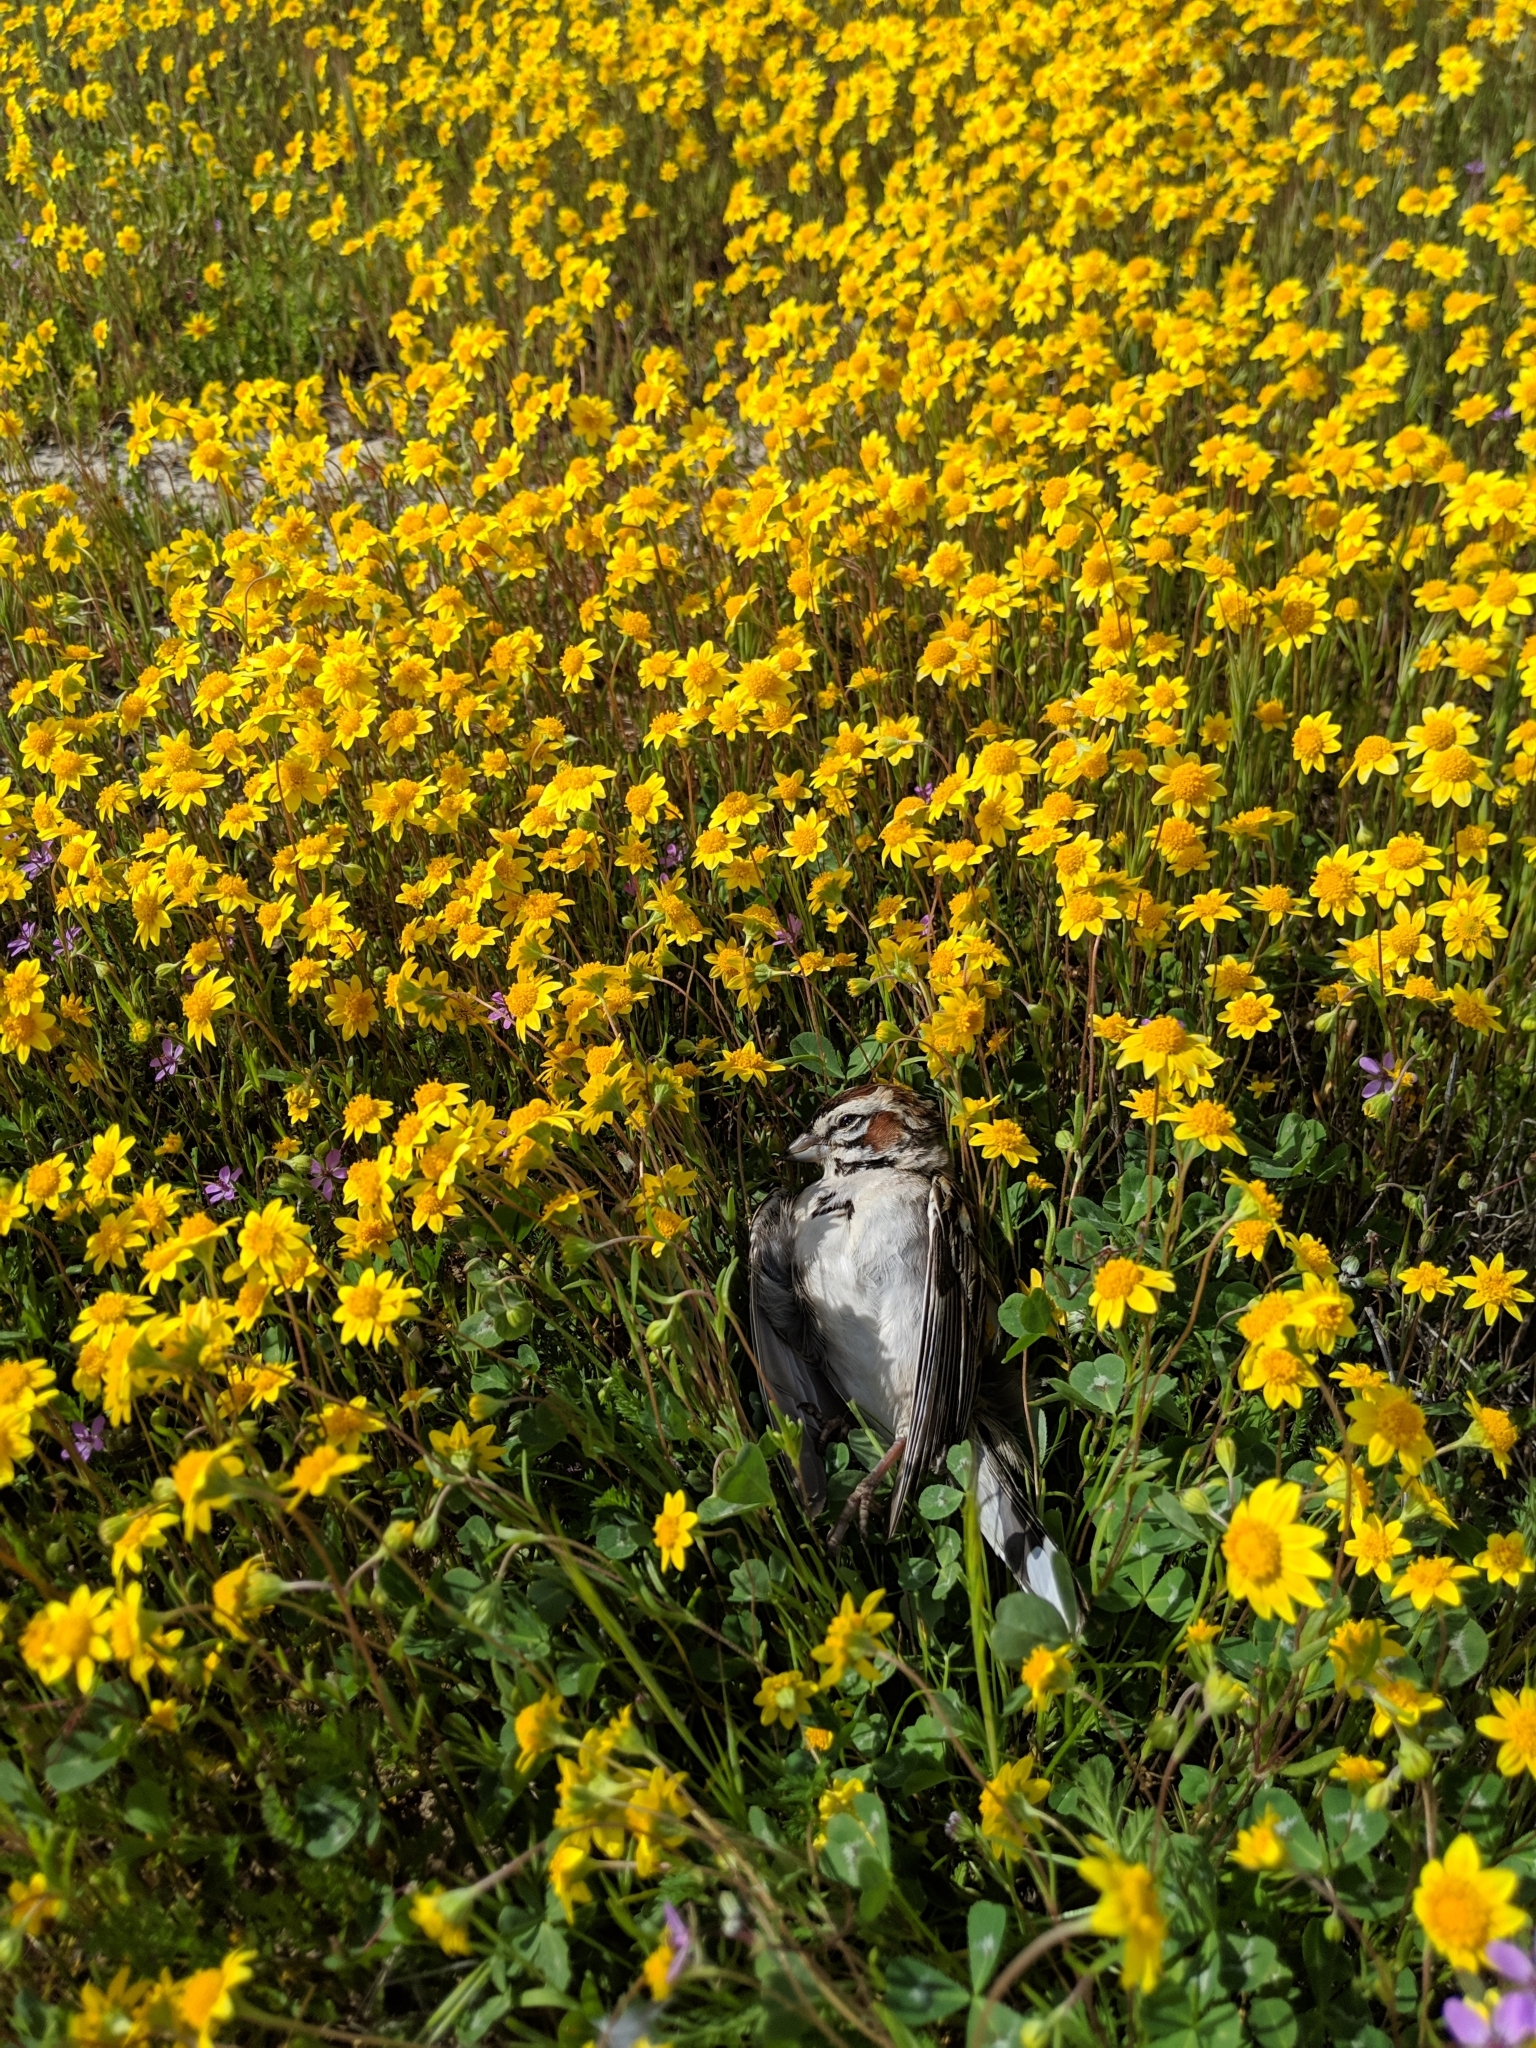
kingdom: Animalia
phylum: Chordata
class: Aves
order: Passeriformes
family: Passerellidae
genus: Chondestes
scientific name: Chondestes grammacus
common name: Lark sparrow
